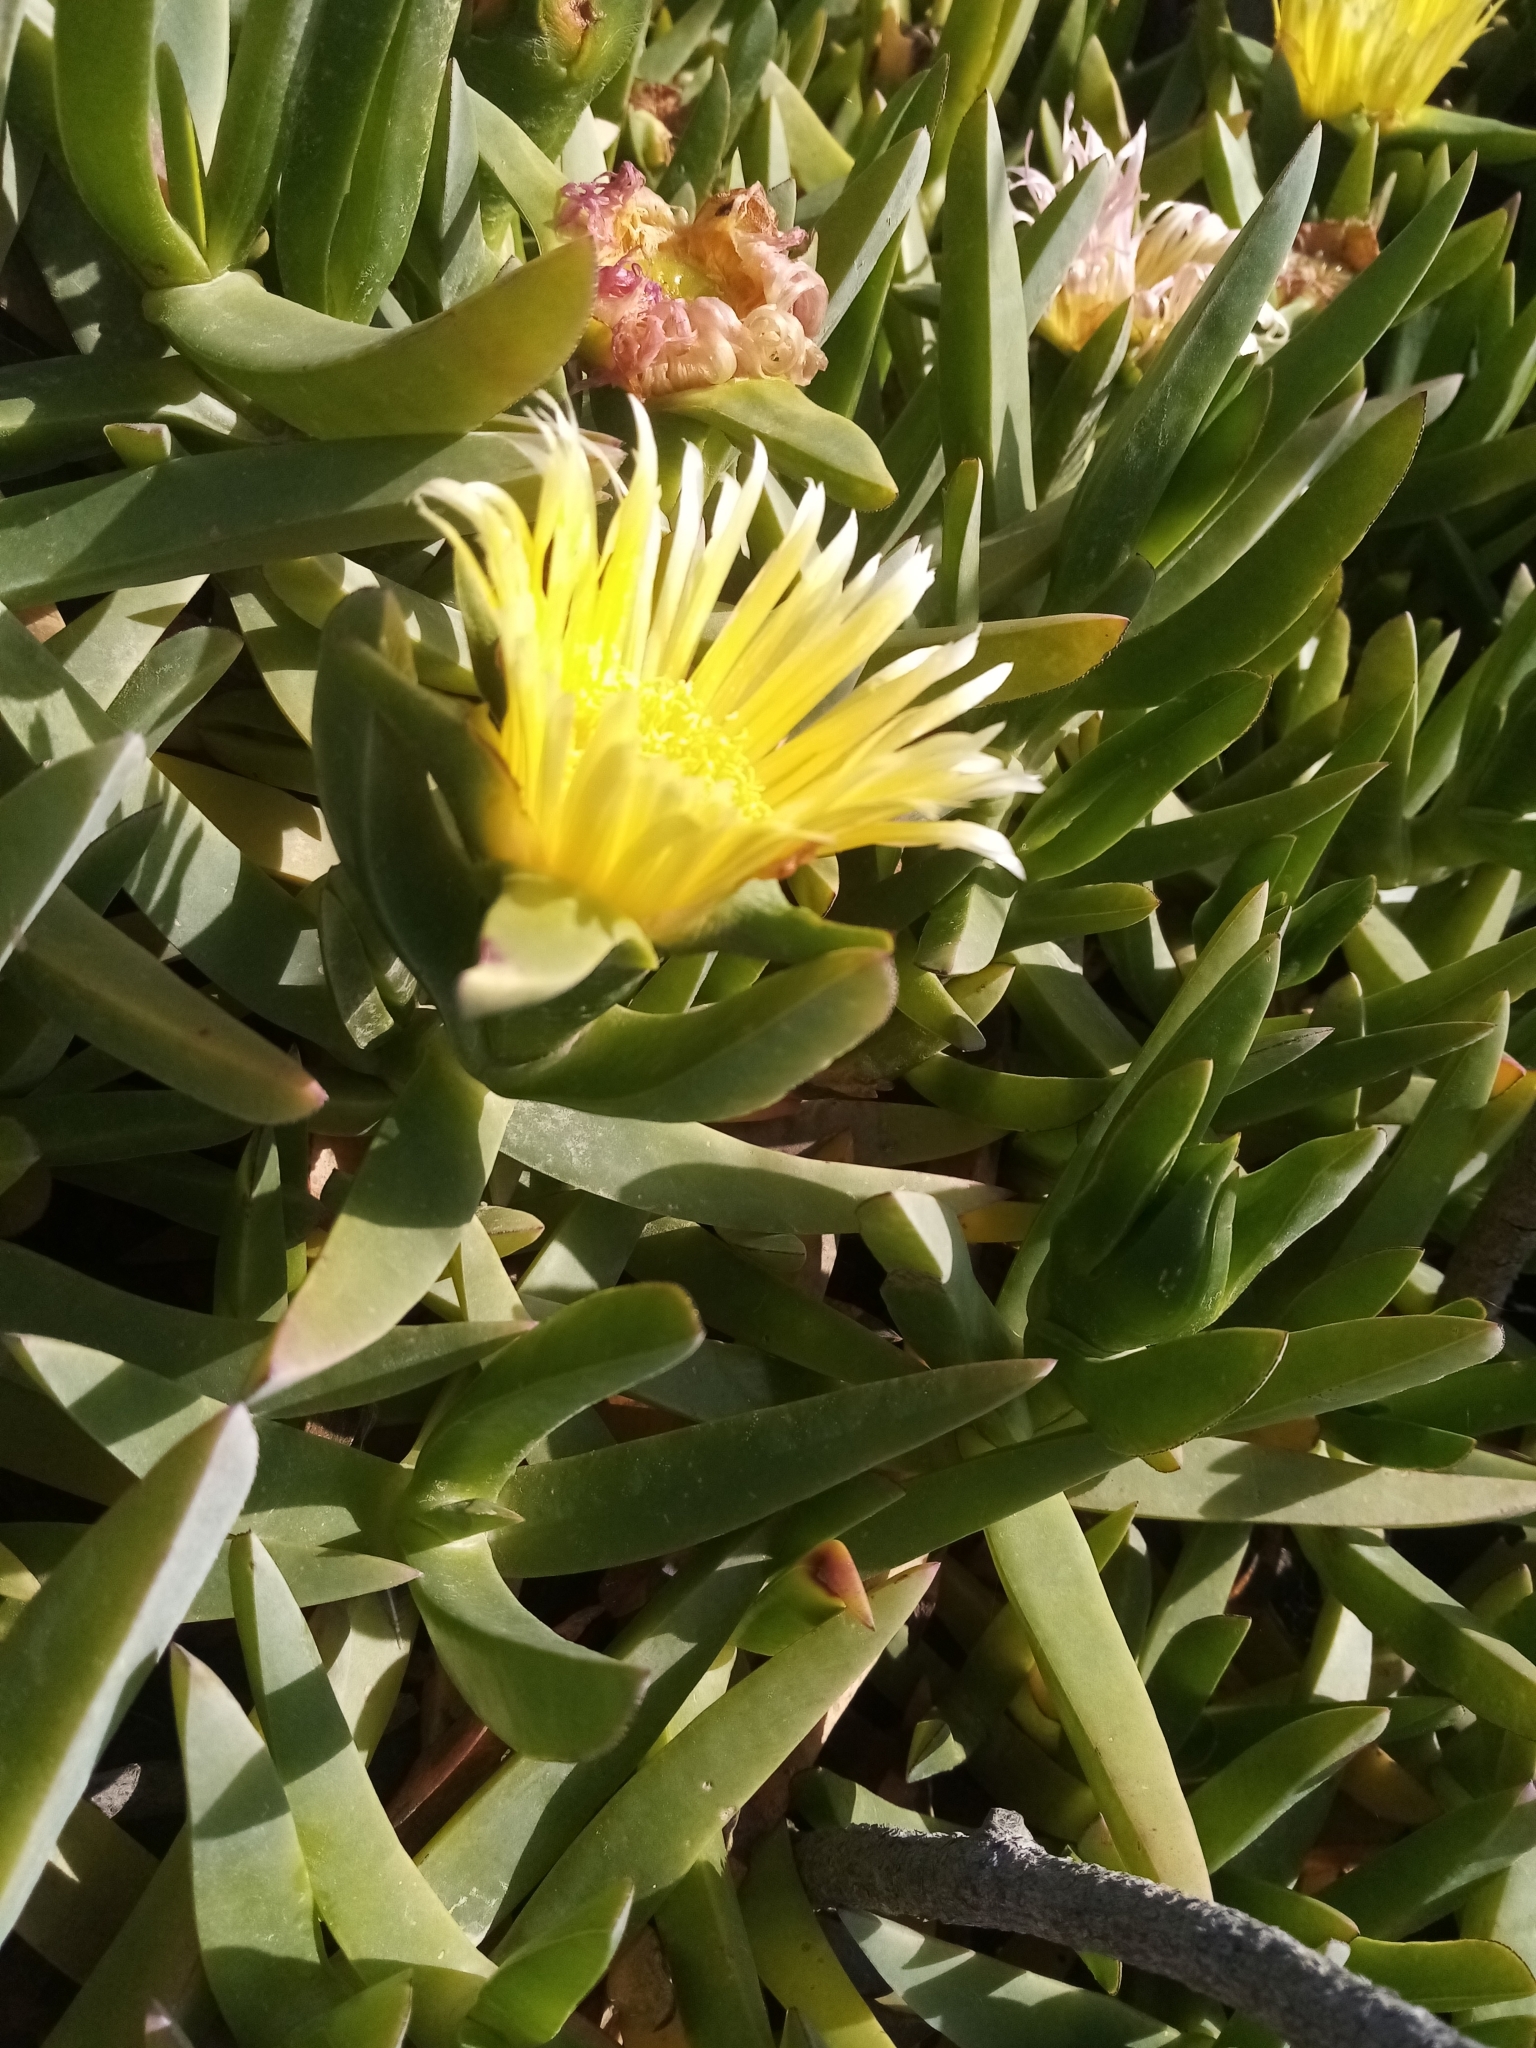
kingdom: Plantae
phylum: Tracheophyta
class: Magnoliopsida
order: Caryophyllales
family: Aizoaceae
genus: Carpobrotus
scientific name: Carpobrotus edulis
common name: Hottentot-fig
